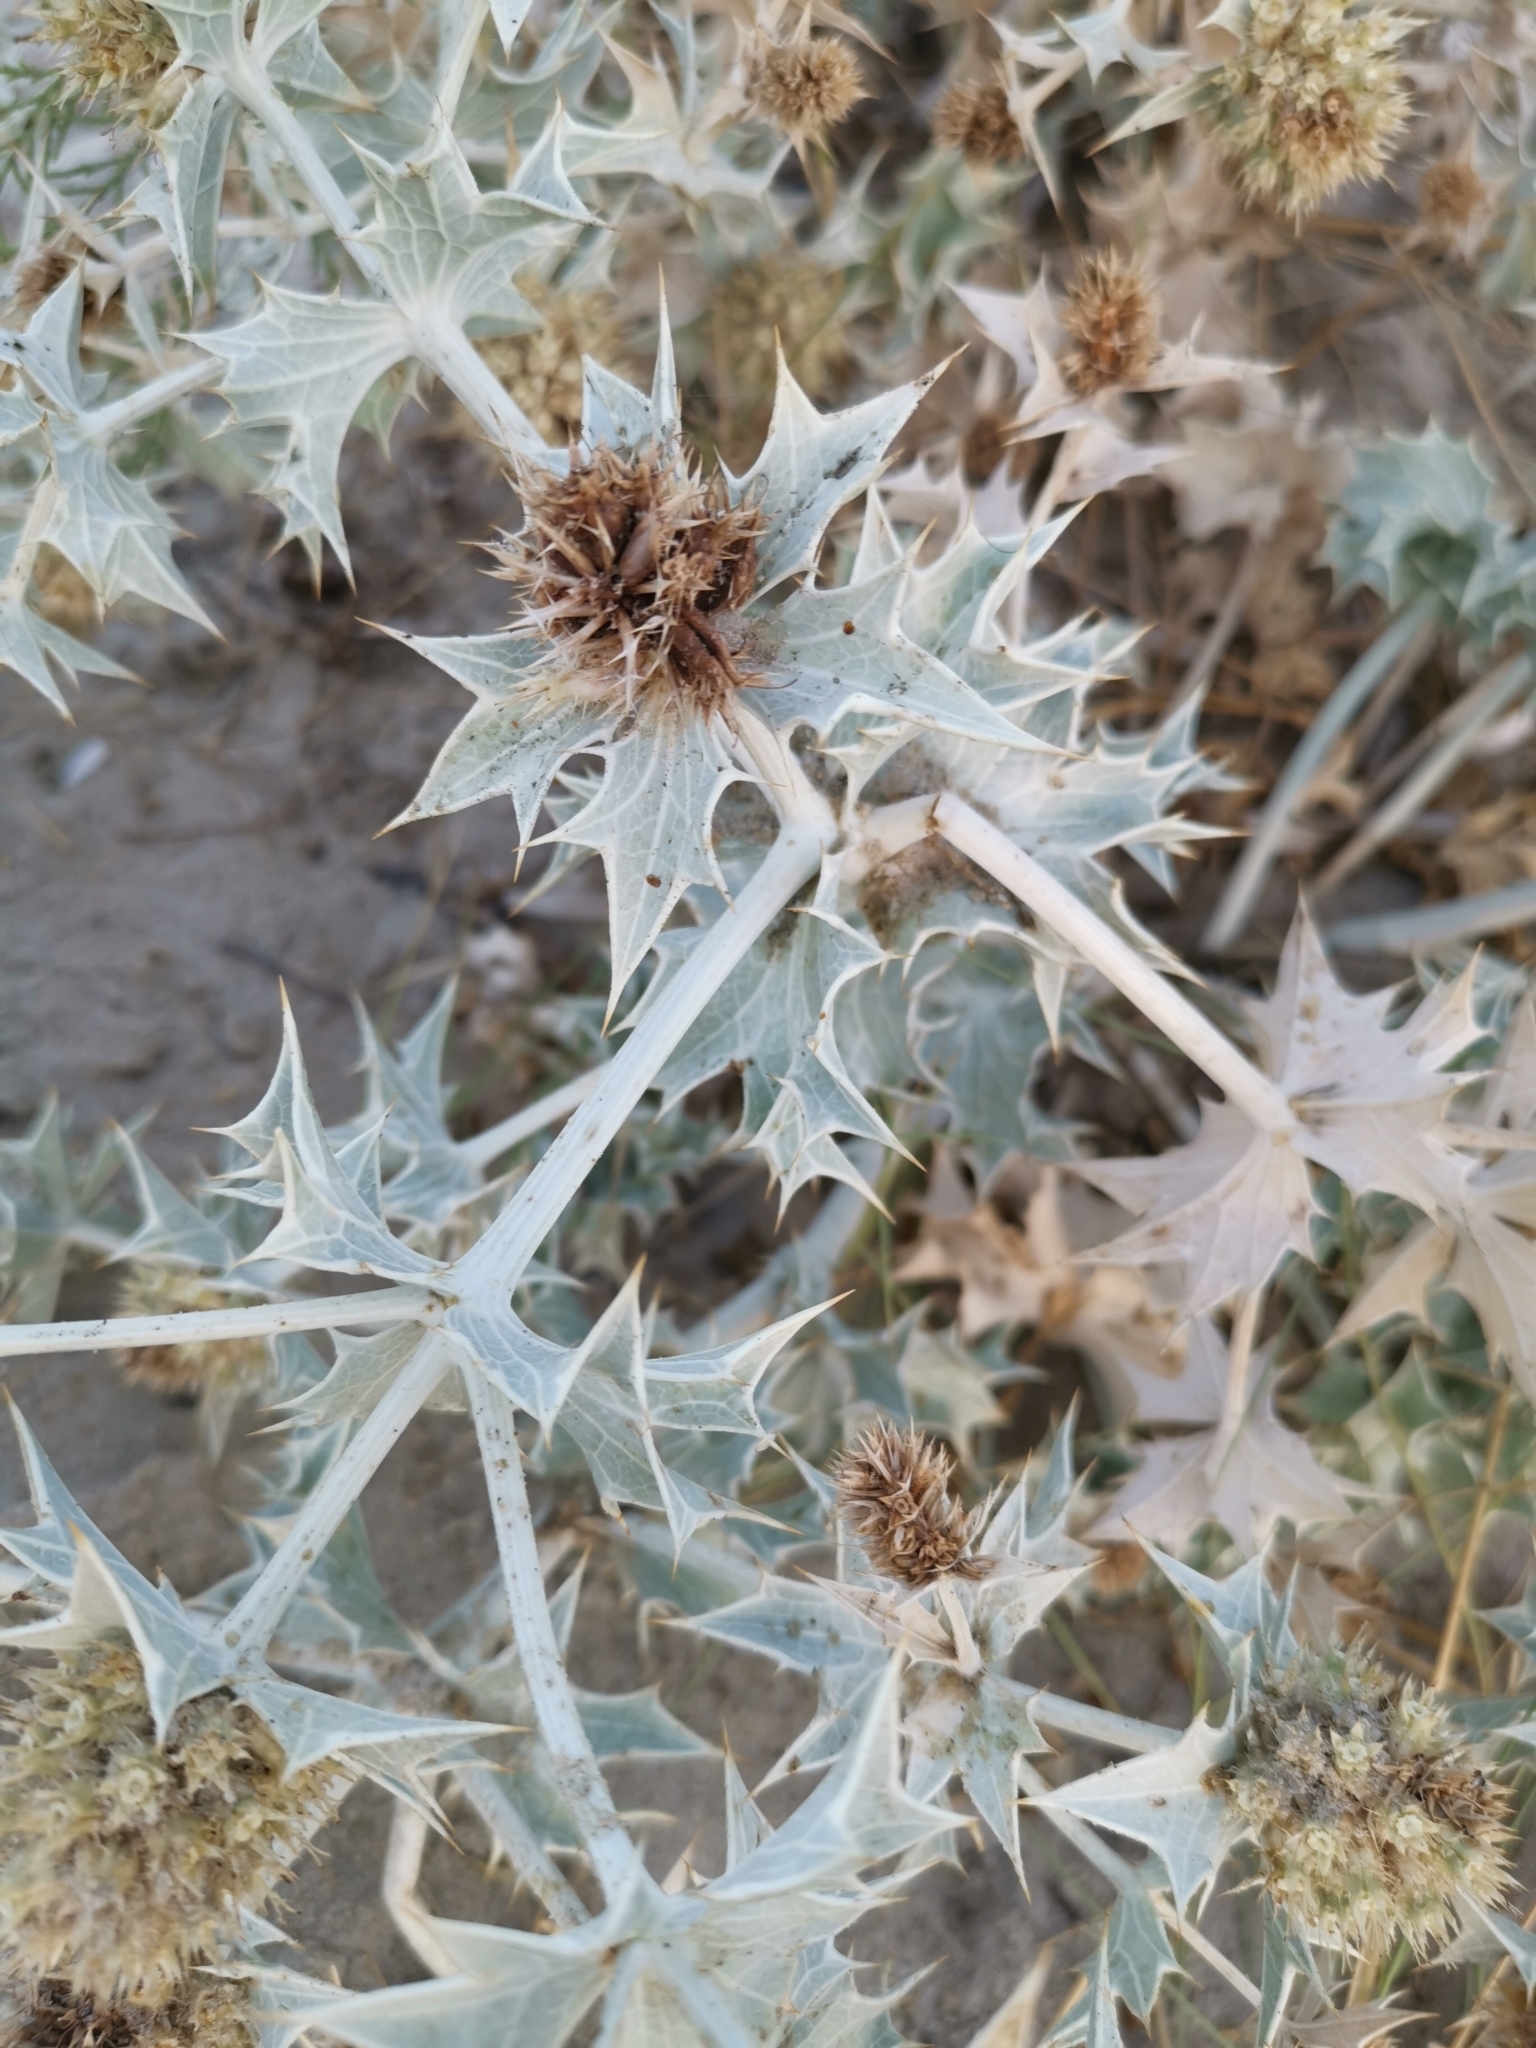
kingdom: Plantae
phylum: Tracheophyta
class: Magnoliopsida
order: Apiales
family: Apiaceae
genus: Eryngium
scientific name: Eryngium maritimum
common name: Sea-holly
